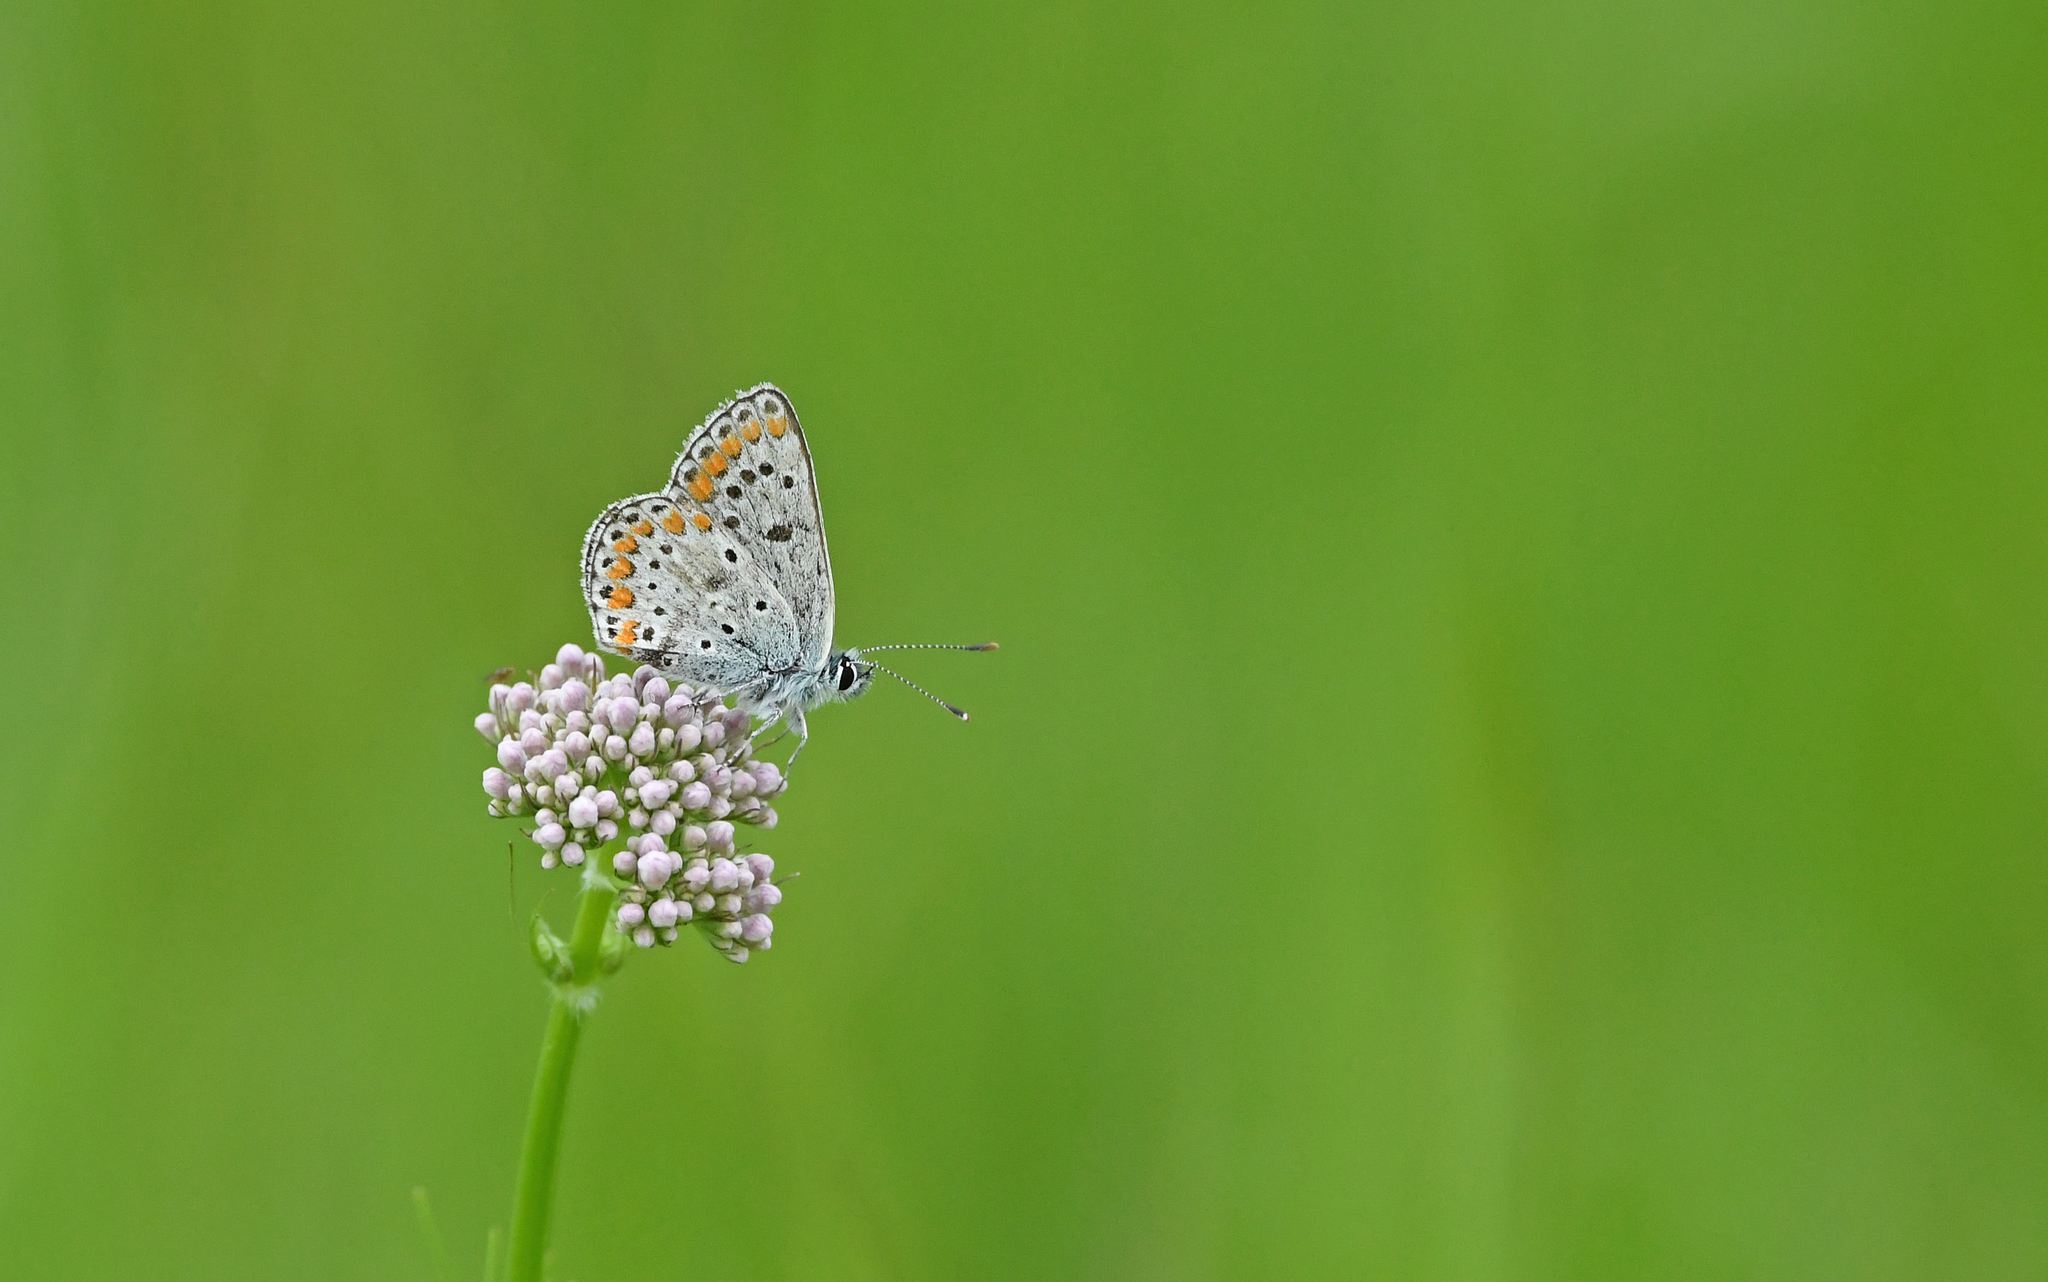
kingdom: Animalia
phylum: Arthropoda
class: Insecta
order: Lepidoptera
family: Lycaenidae
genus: Aricia
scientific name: Aricia agestis
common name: Brown argus
